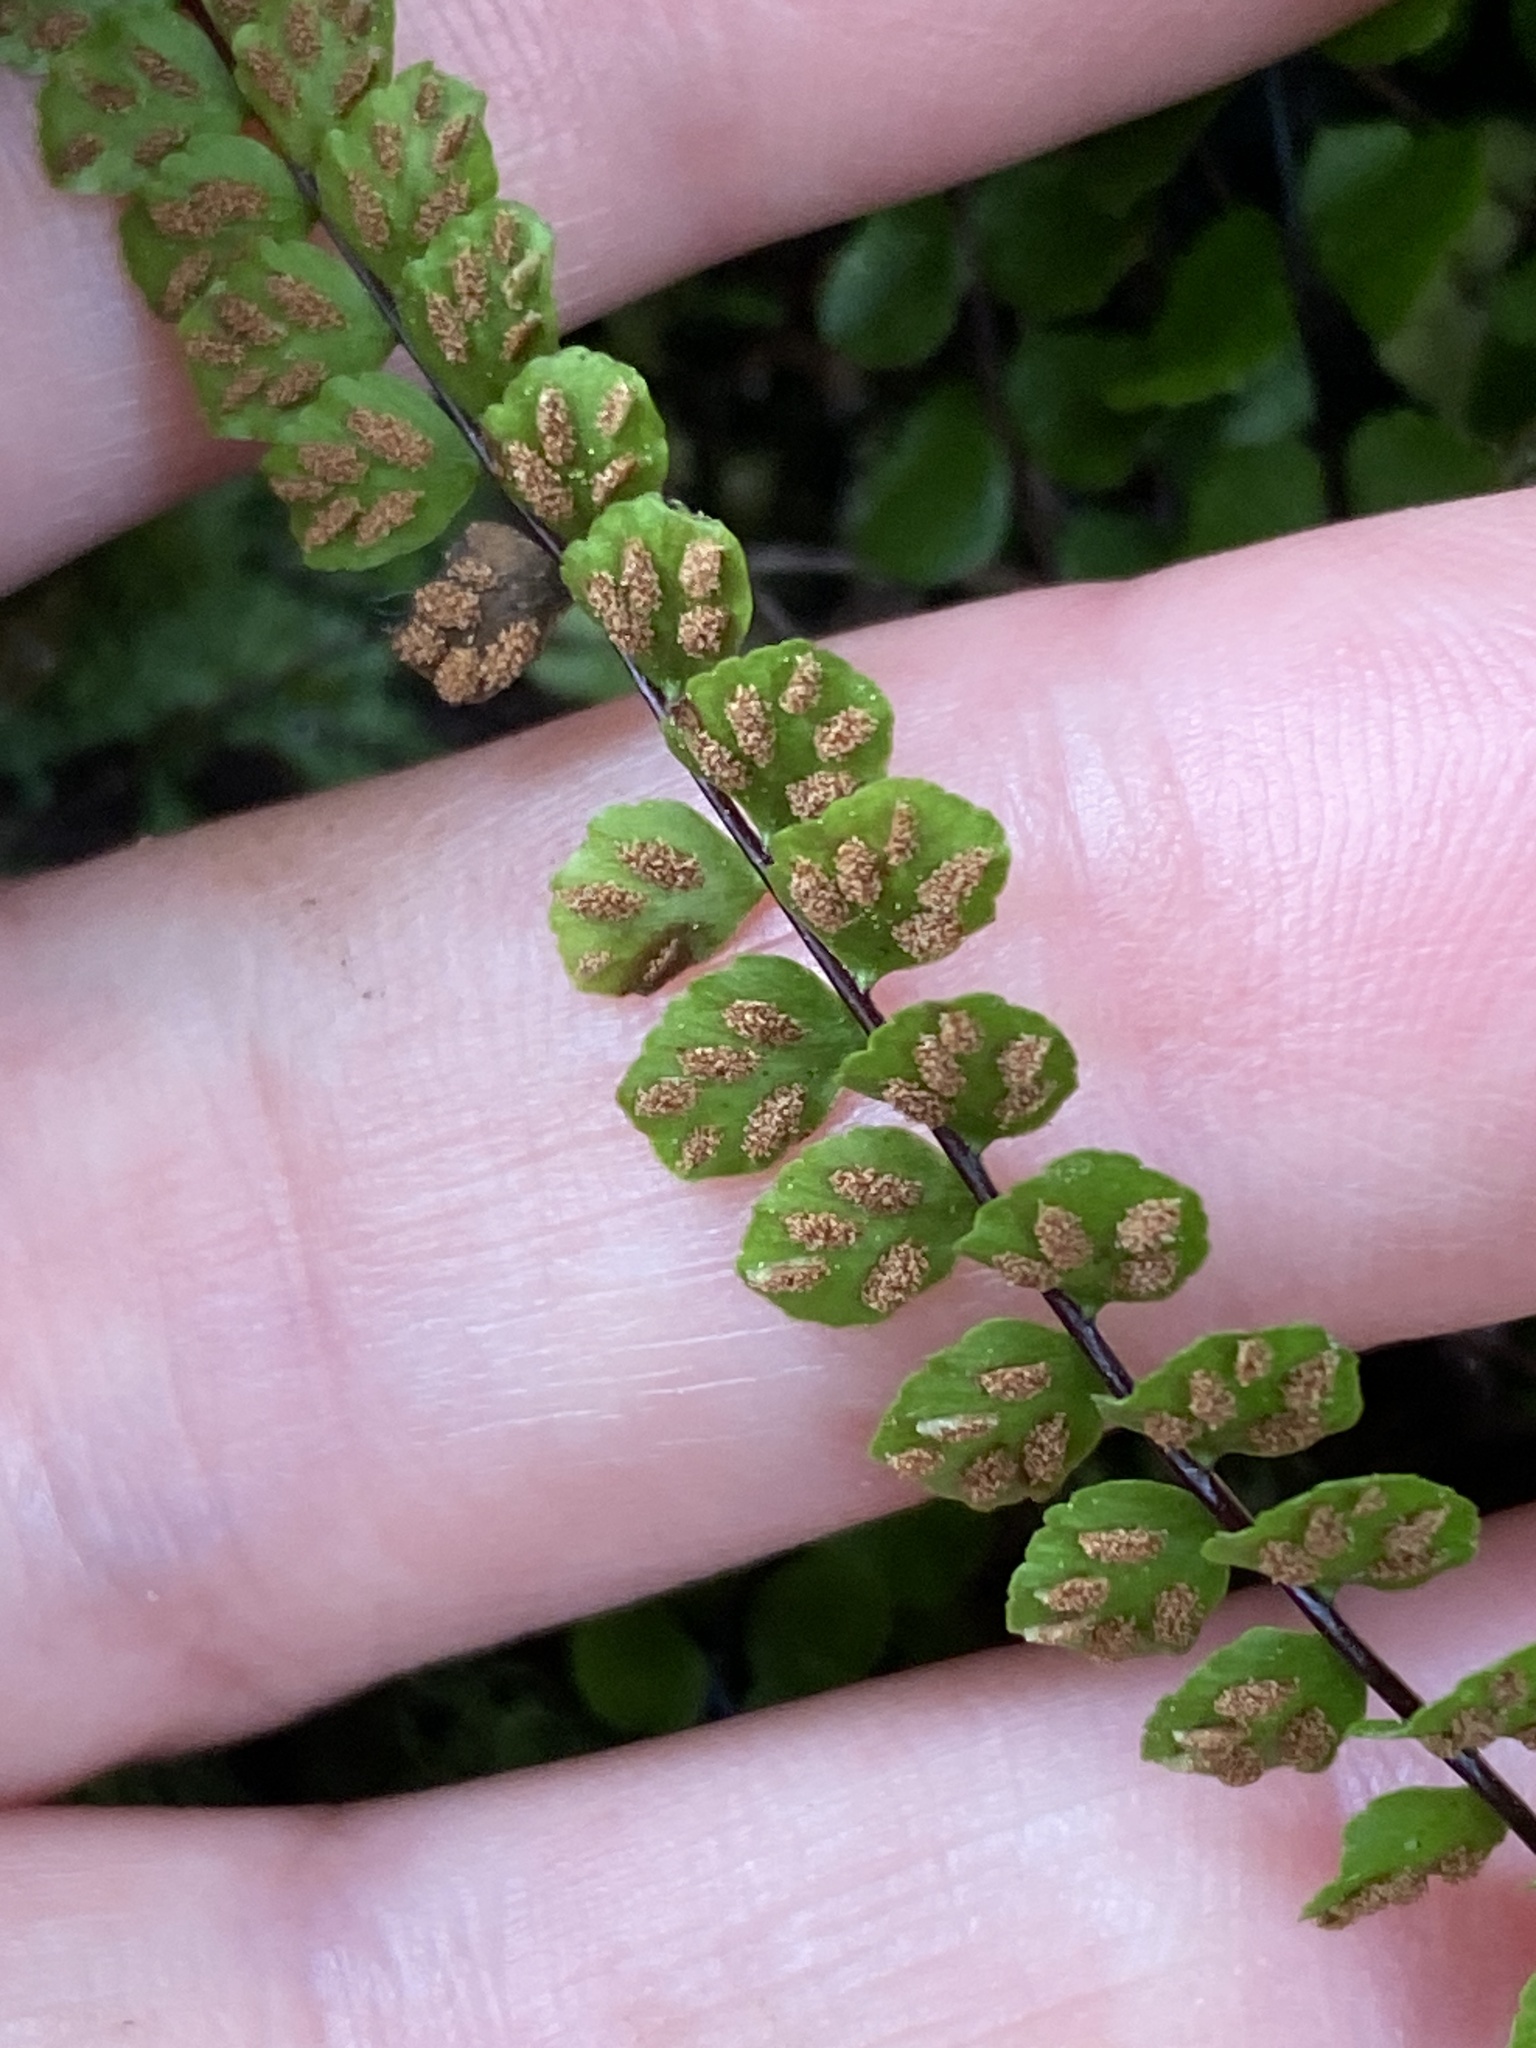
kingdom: Plantae
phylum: Tracheophyta
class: Polypodiopsida
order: Polypodiales
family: Aspleniaceae
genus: Asplenium
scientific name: Asplenium trichomanes
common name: Maidenhair spleenwort
